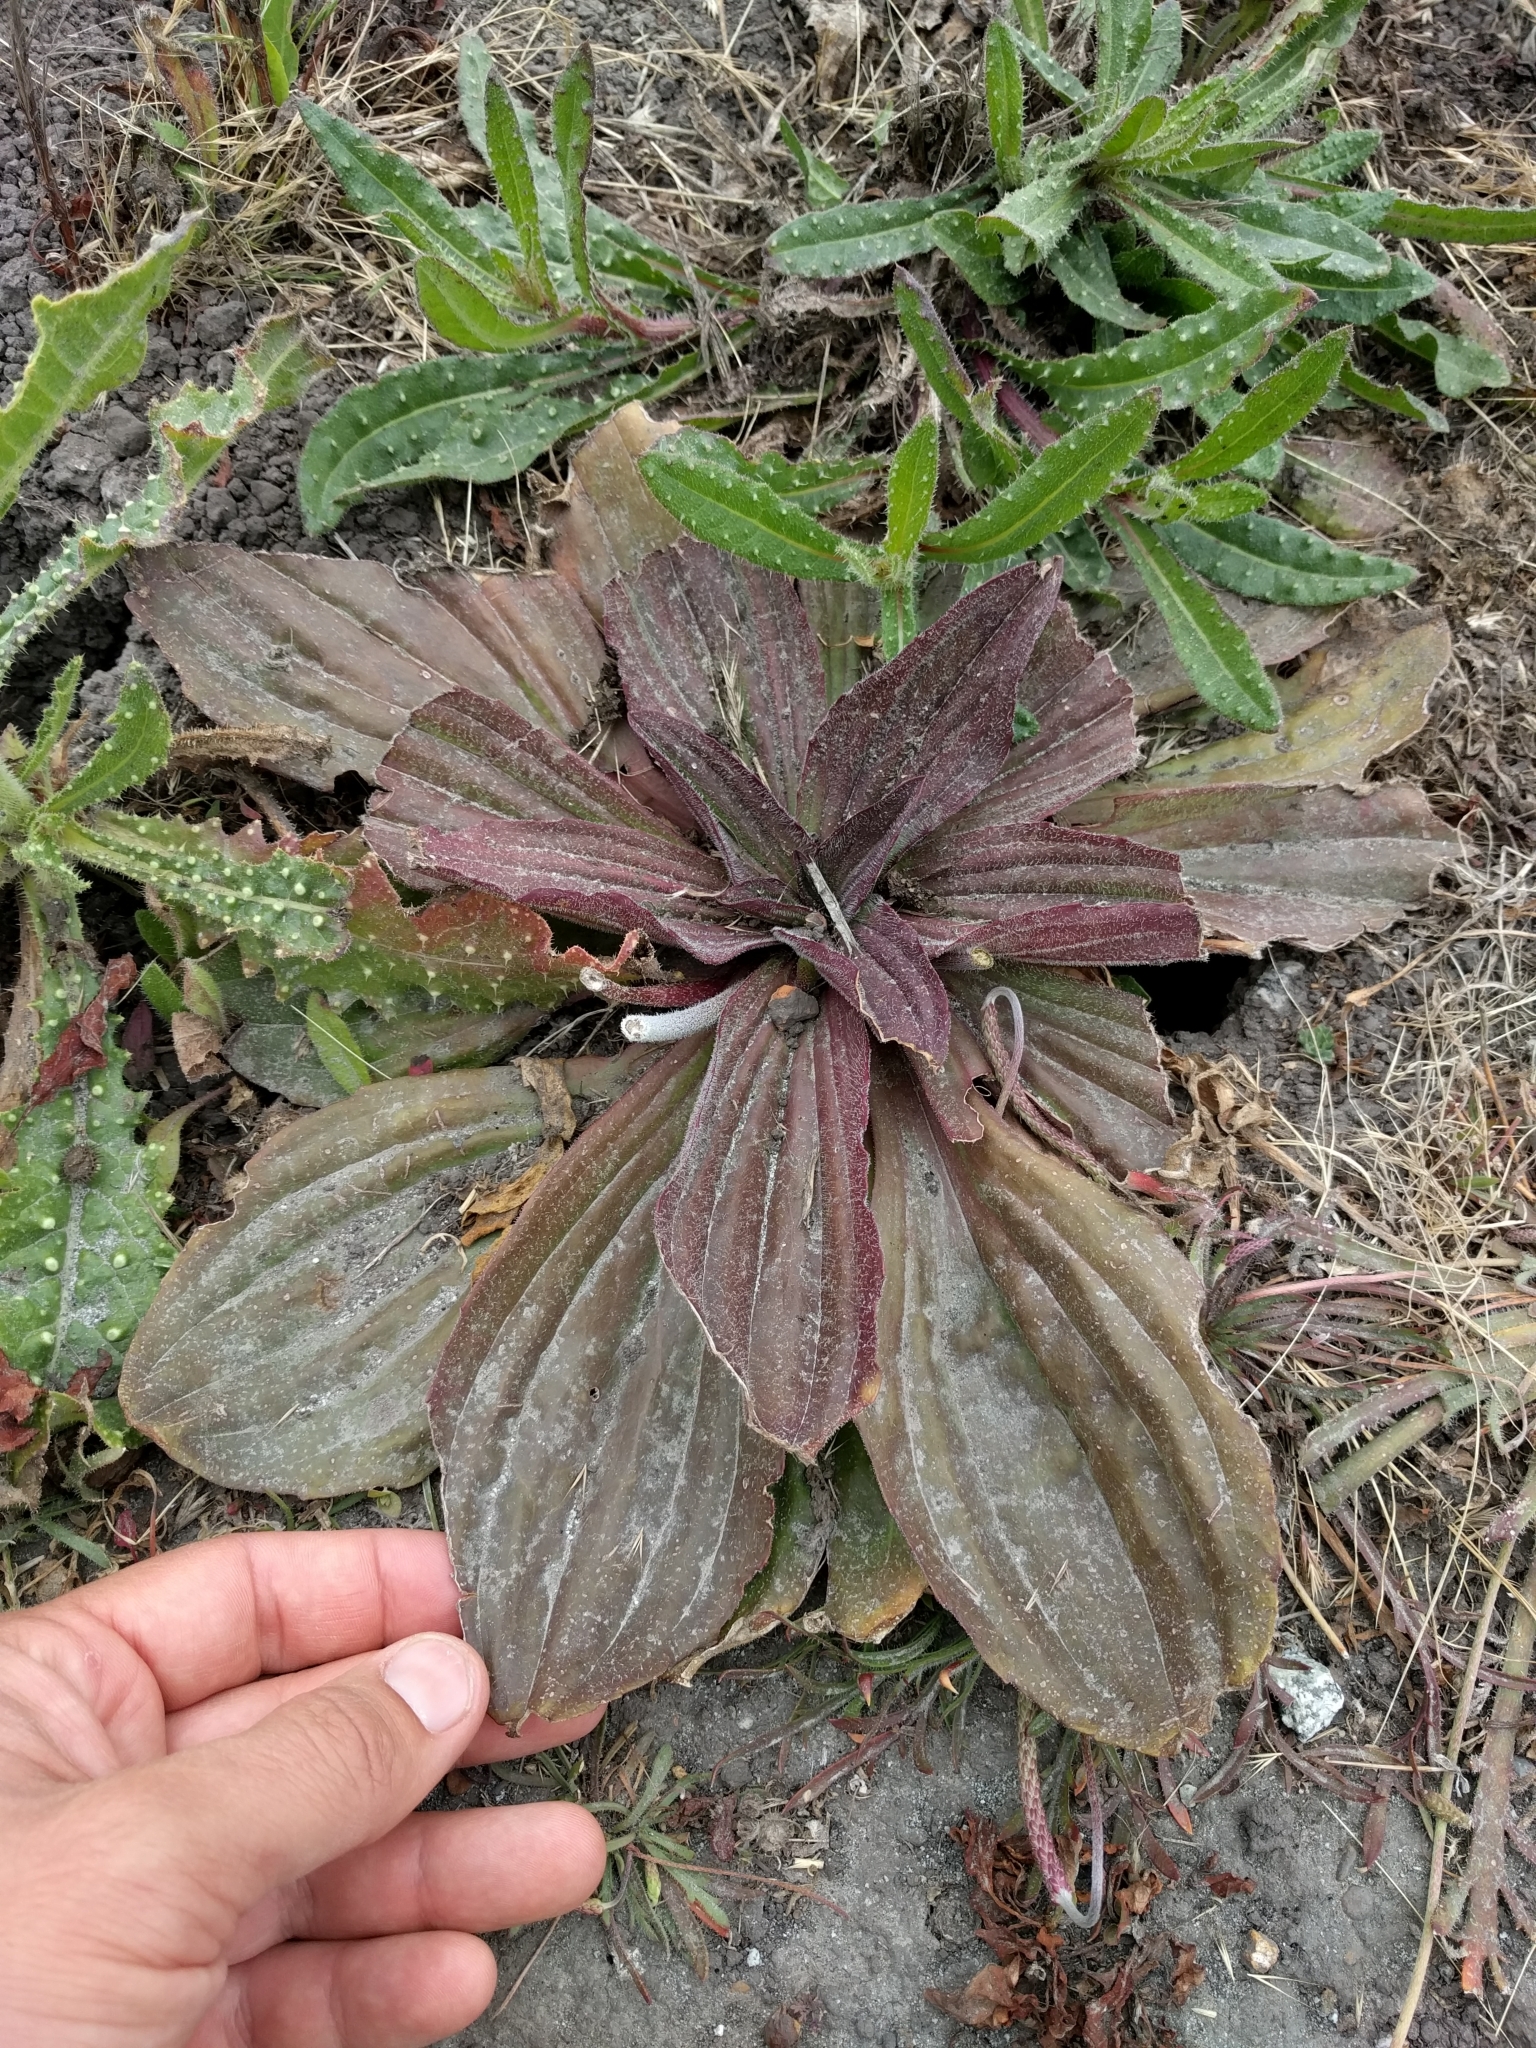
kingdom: Plantae
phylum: Tracheophyta
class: Magnoliopsida
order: Lamiales
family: Plantaginaceae
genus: Plantago
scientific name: Plantago subnuda
